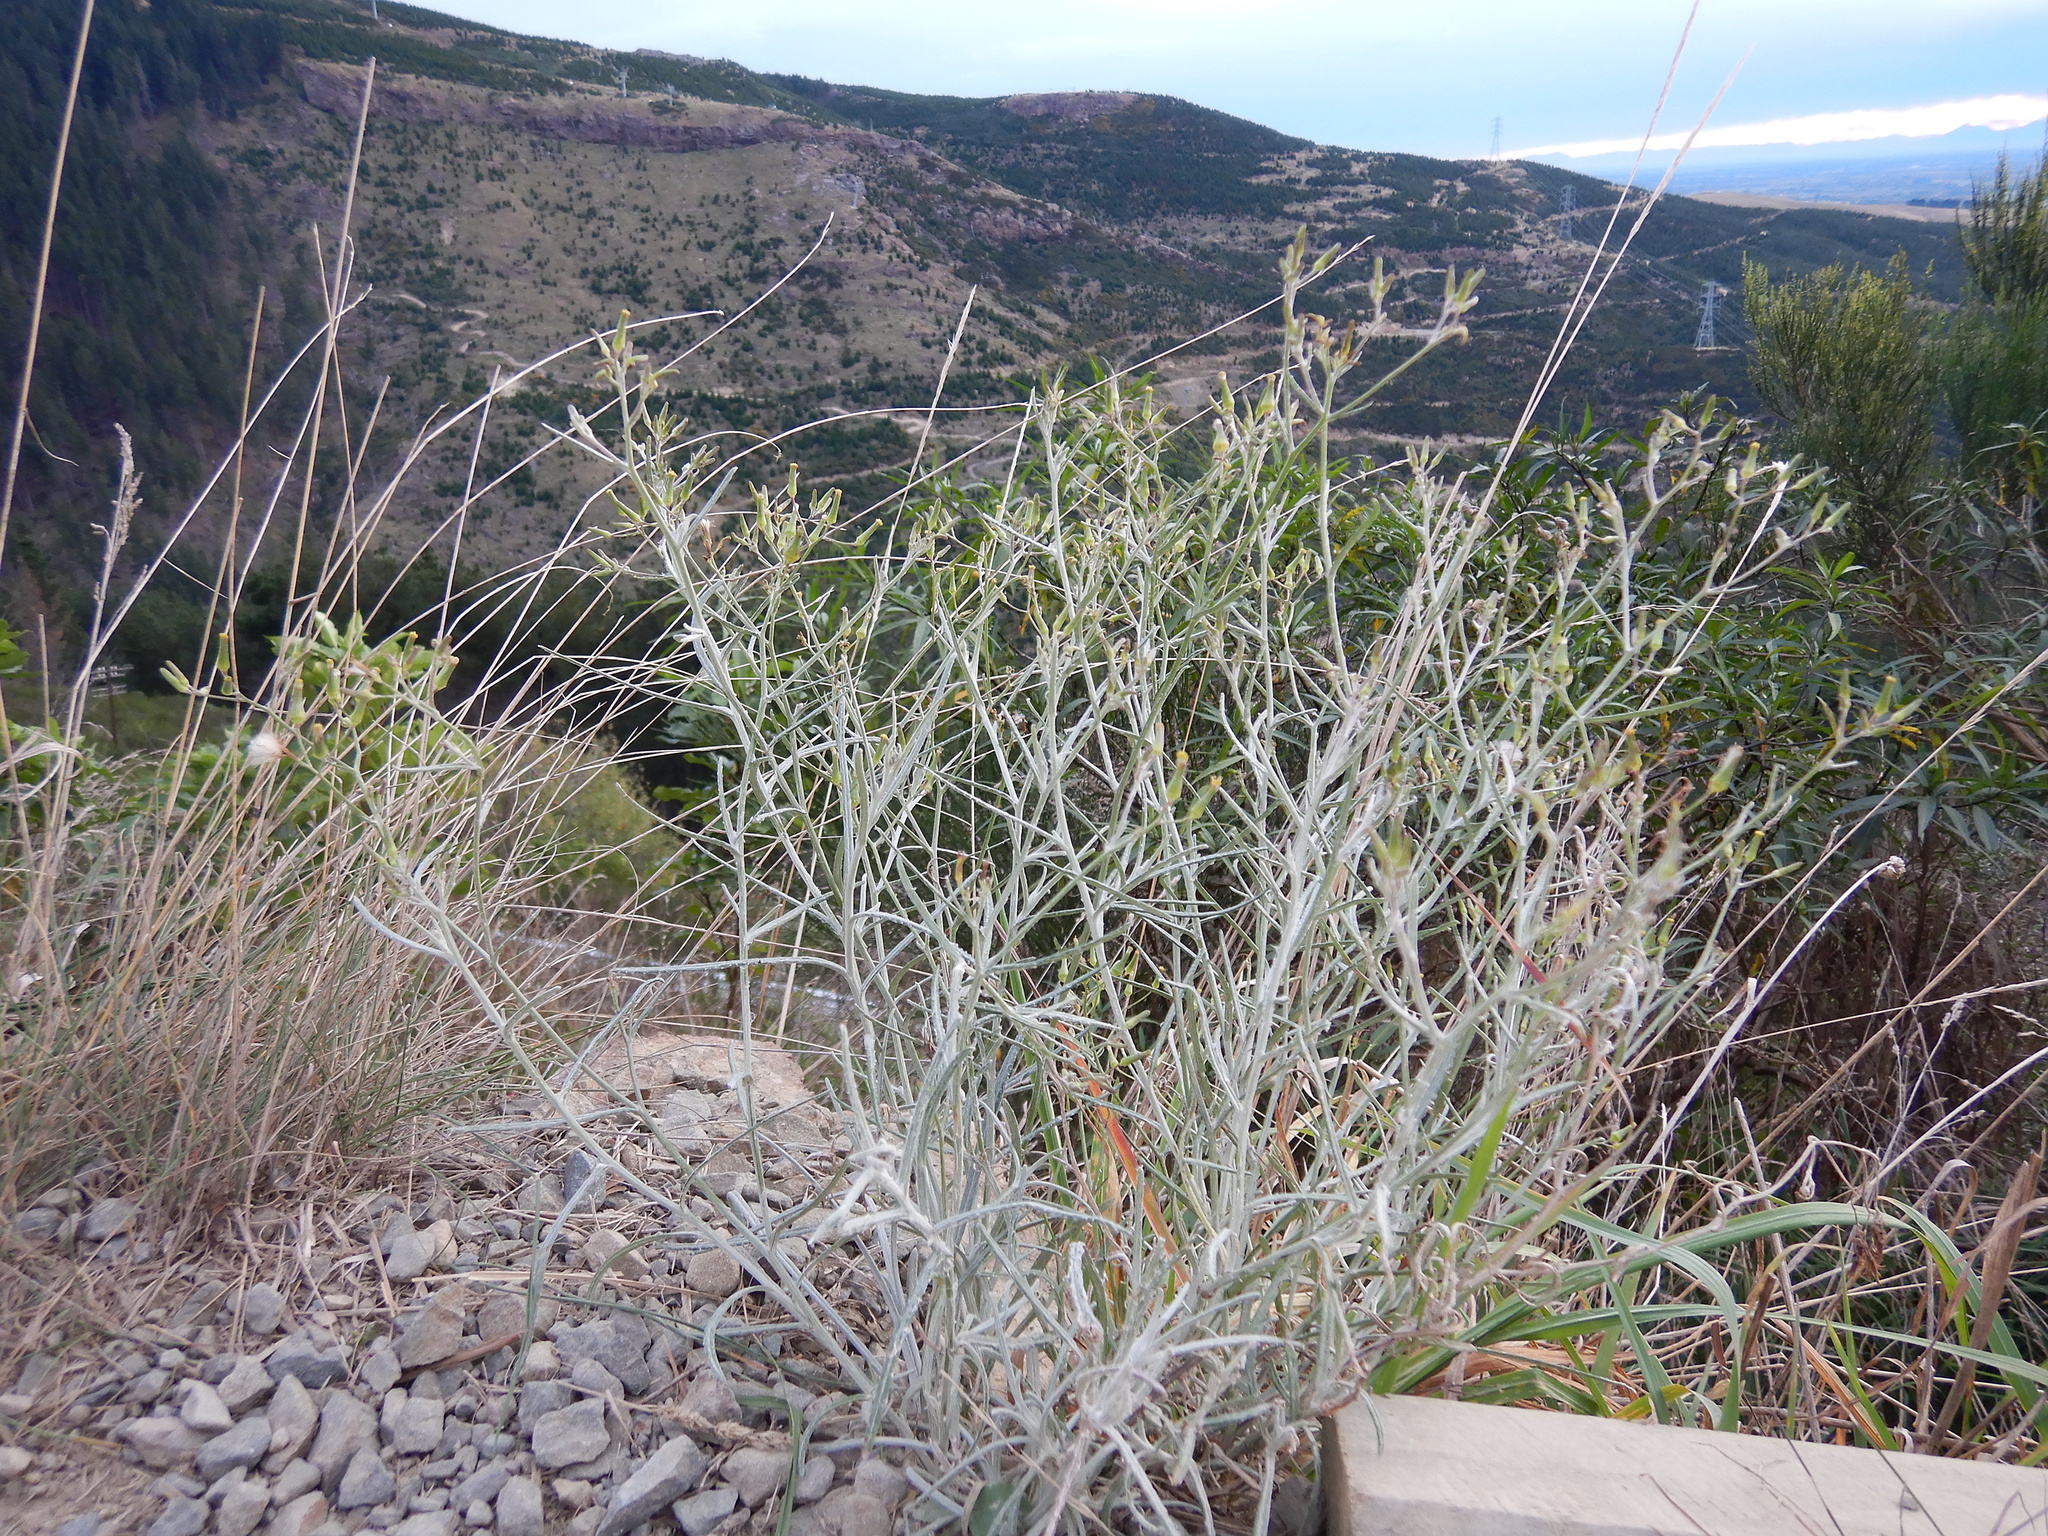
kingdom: Plantae
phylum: Tracheophyta
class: Magnoliopsida
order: Asterales
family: Asteraceae
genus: Senecio
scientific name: Senecio quadridentatus
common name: Cotton fireweed
